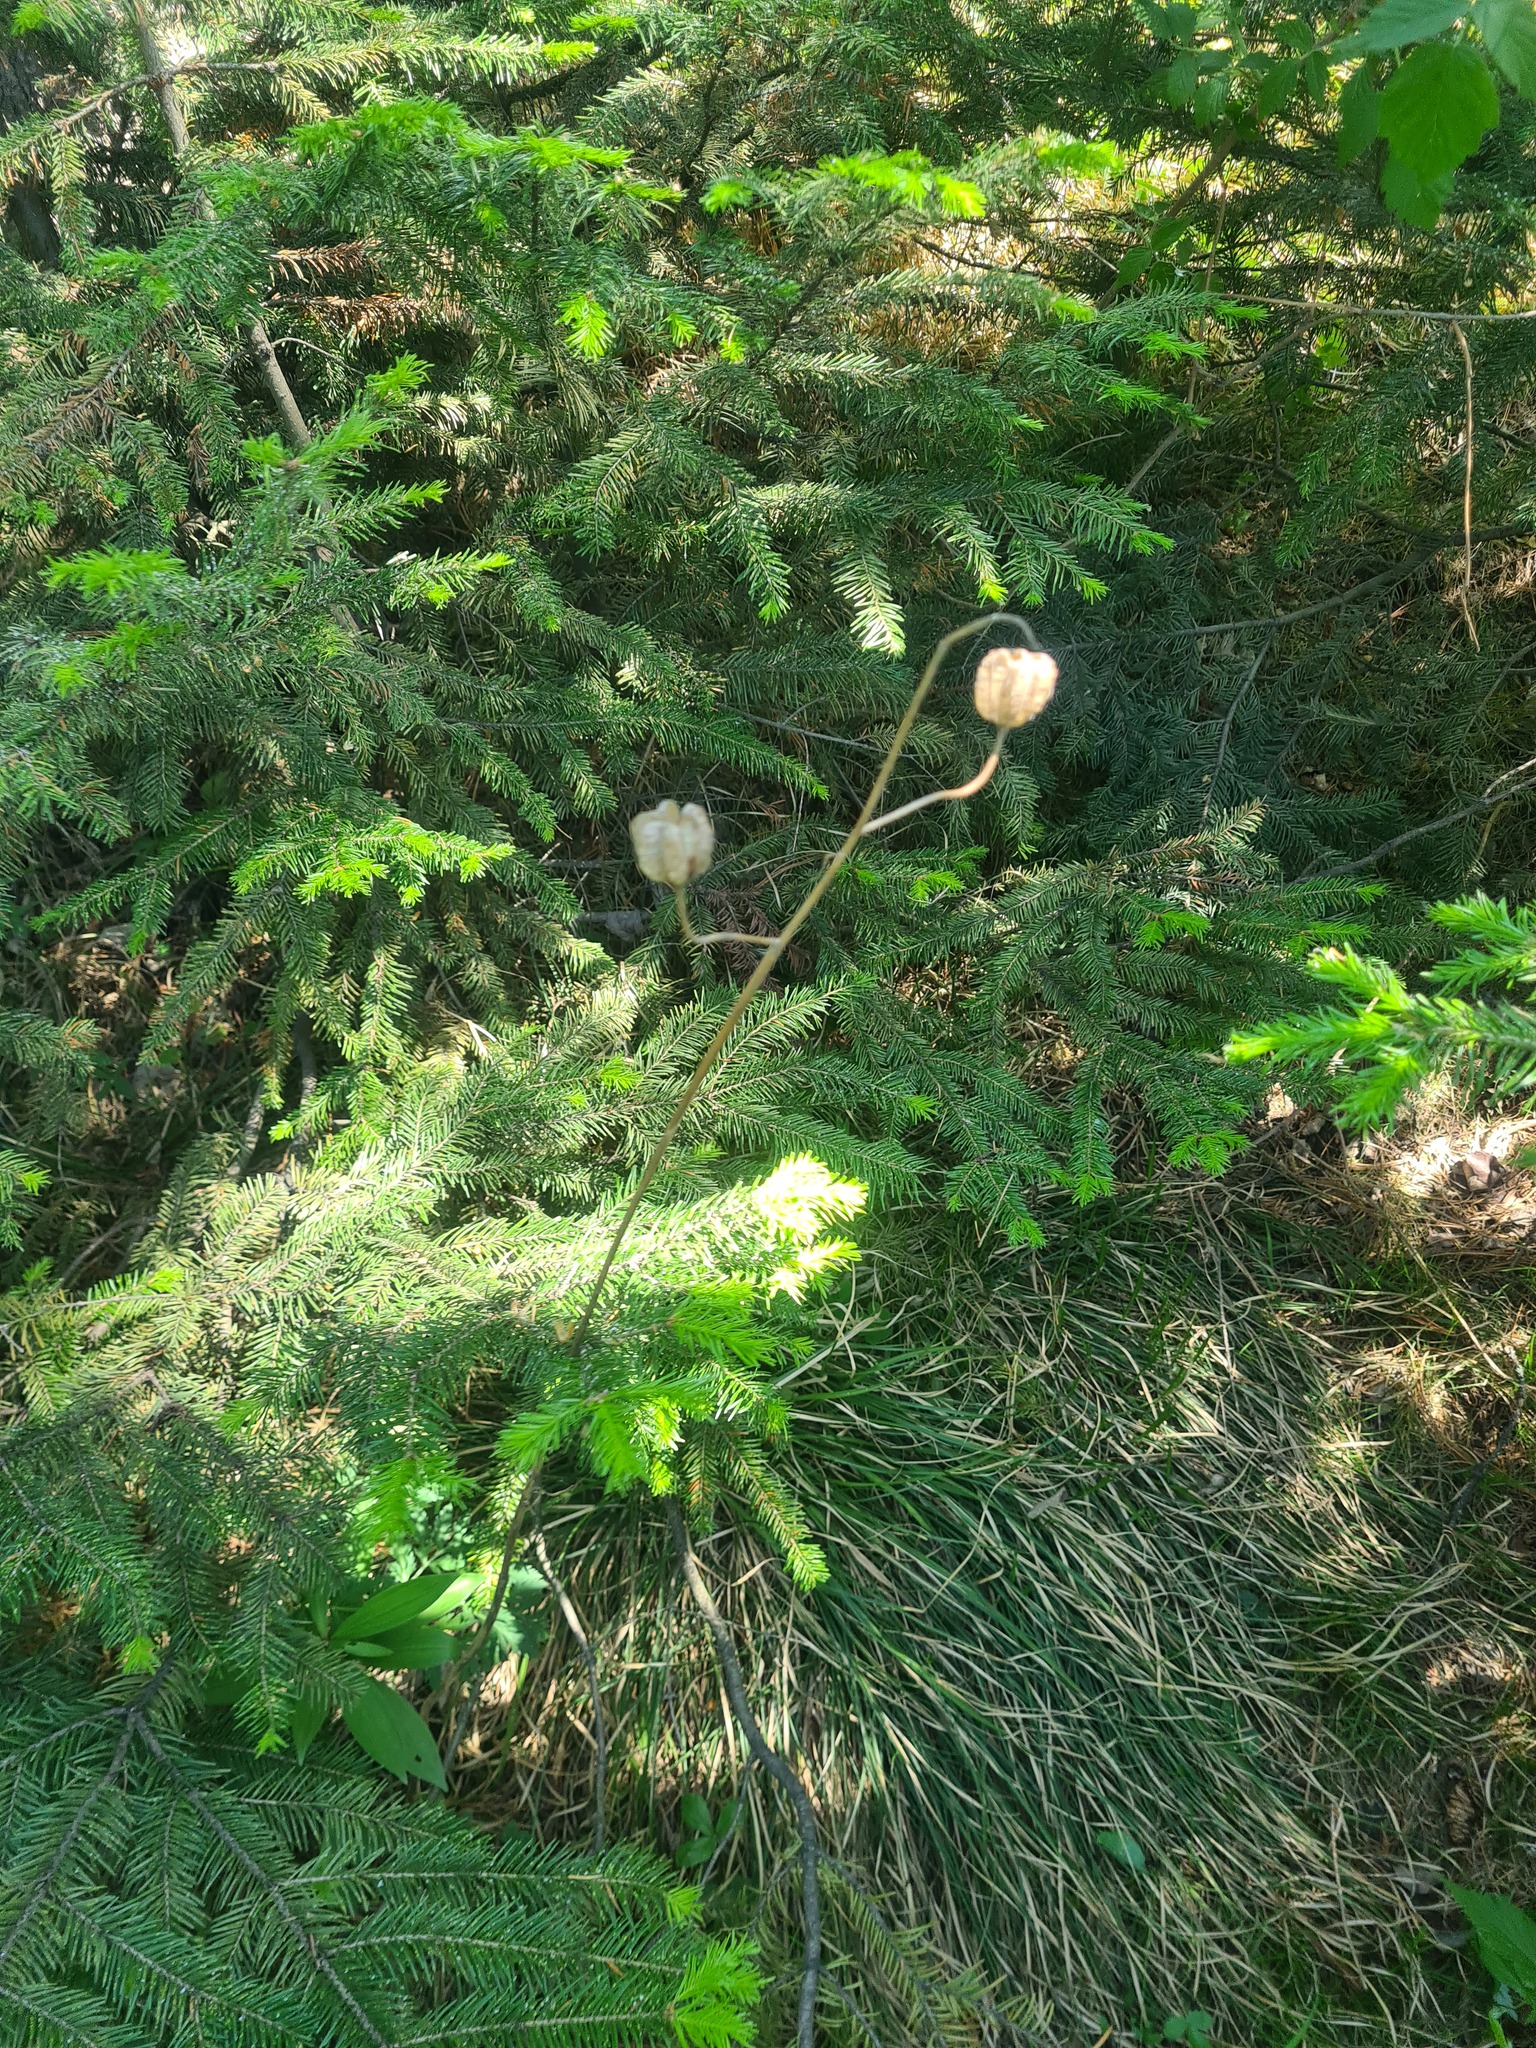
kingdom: Plantae
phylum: Tracheophyta
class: Liliopsida
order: Liliales
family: Liliaceae
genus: Lilium
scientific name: Lilium martagon
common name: Martagon lily
